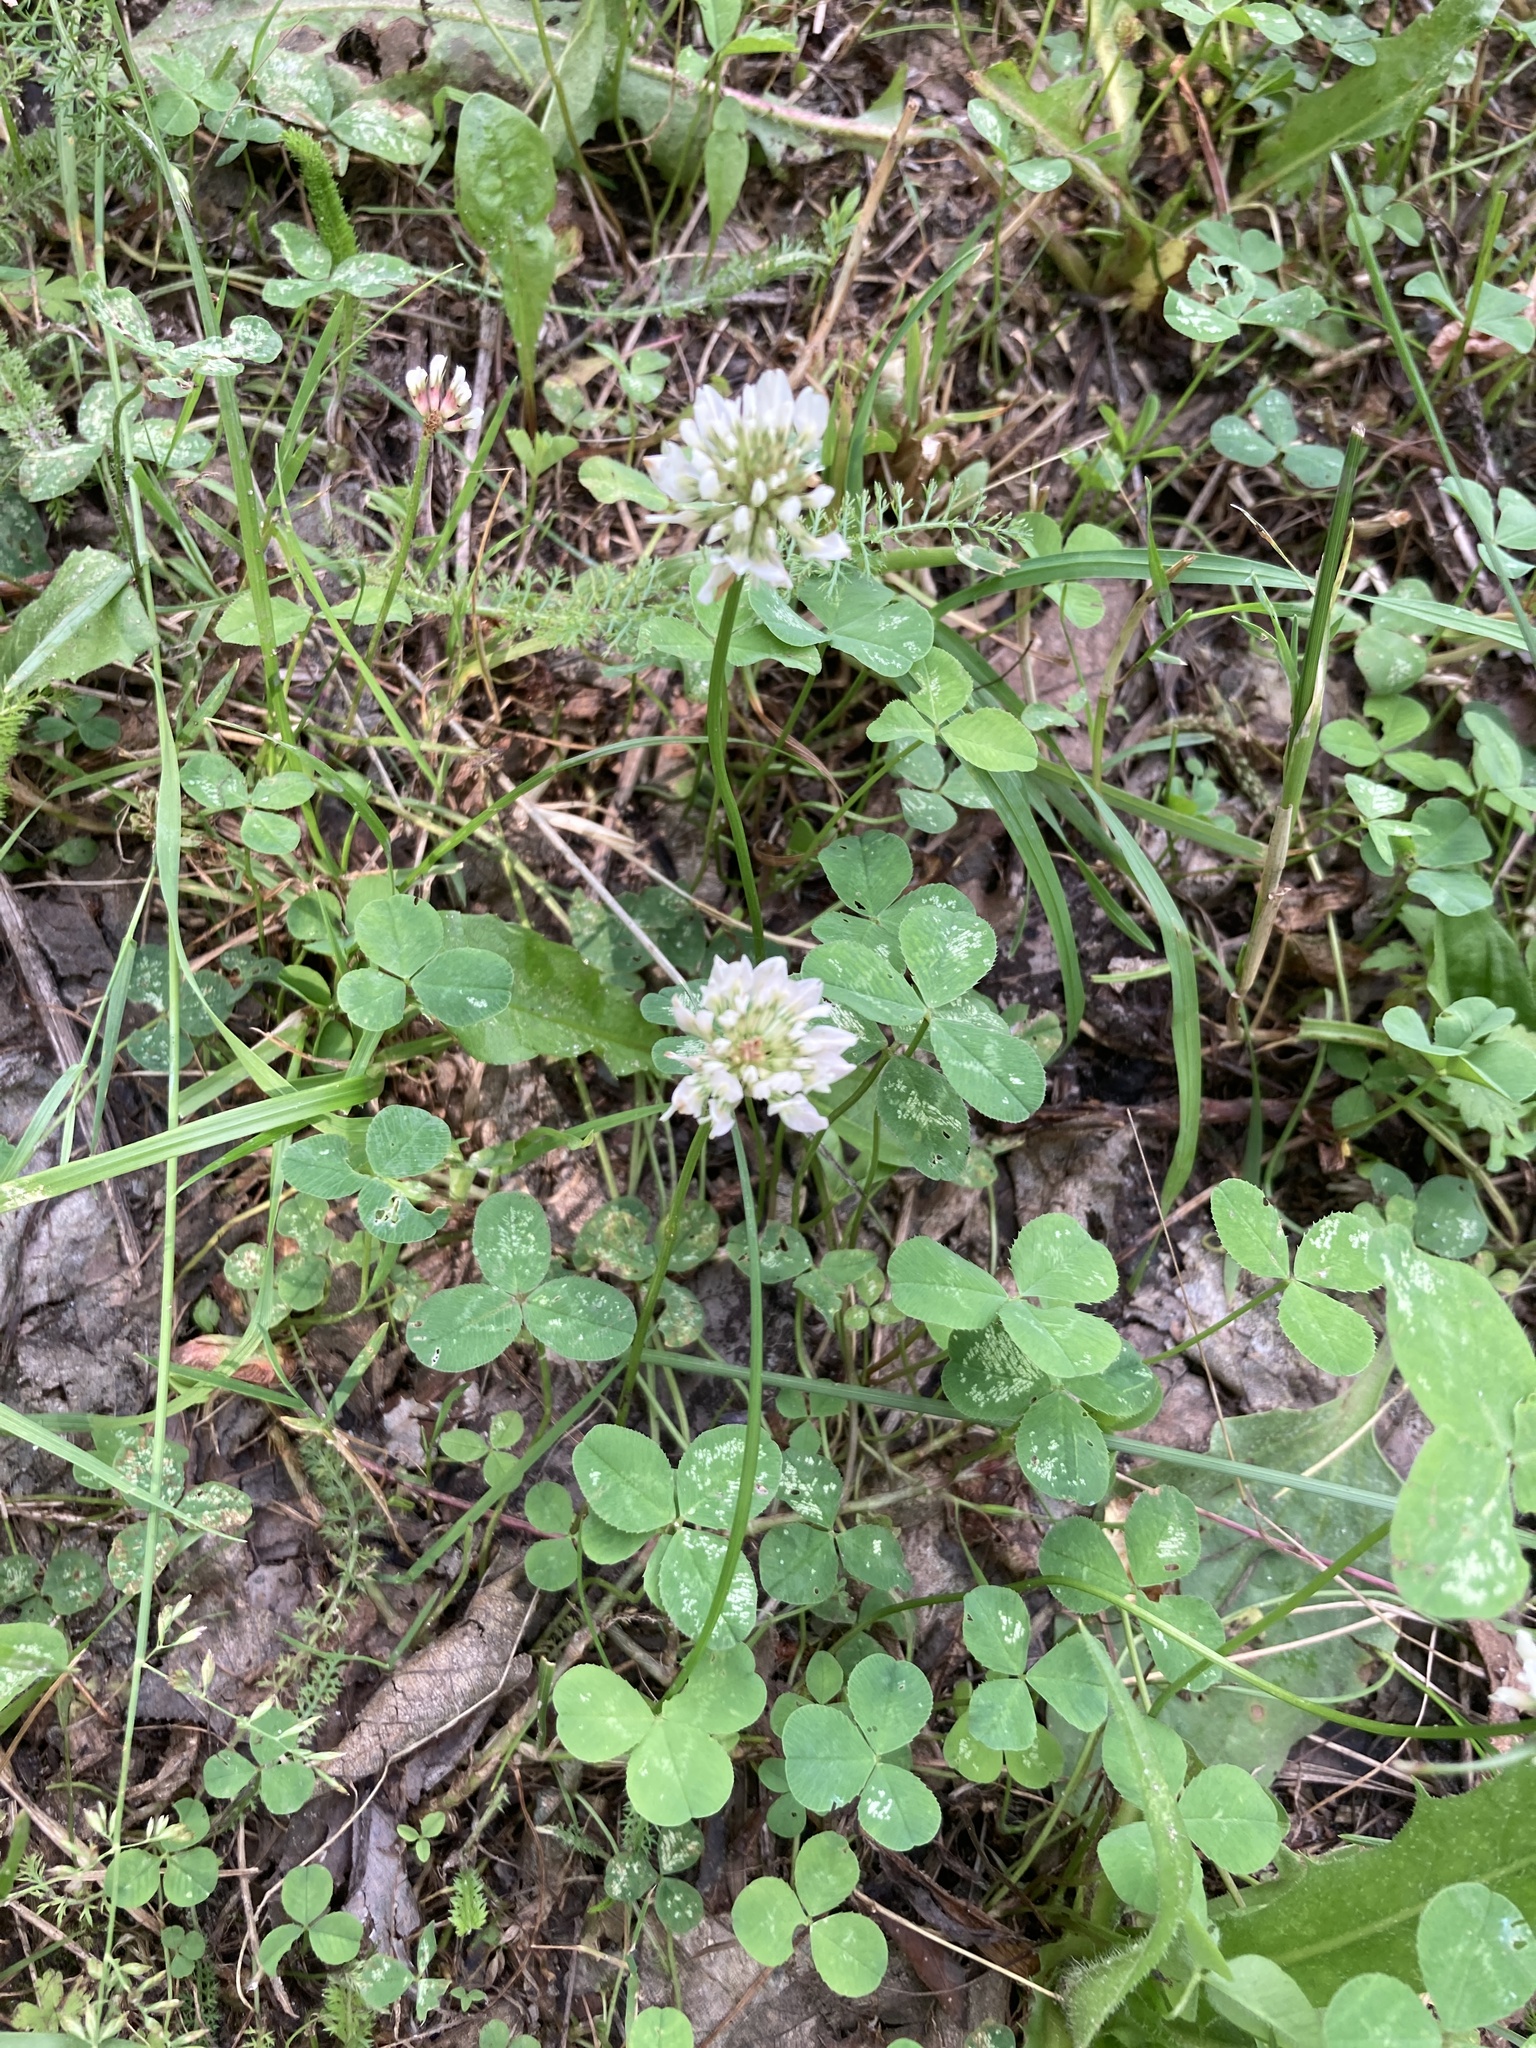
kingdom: Plantae
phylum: Tracheophyta
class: Magnoliopsida
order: Fabales
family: Fabaceae
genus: Trifolium
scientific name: Trifolium repens
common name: White clover
